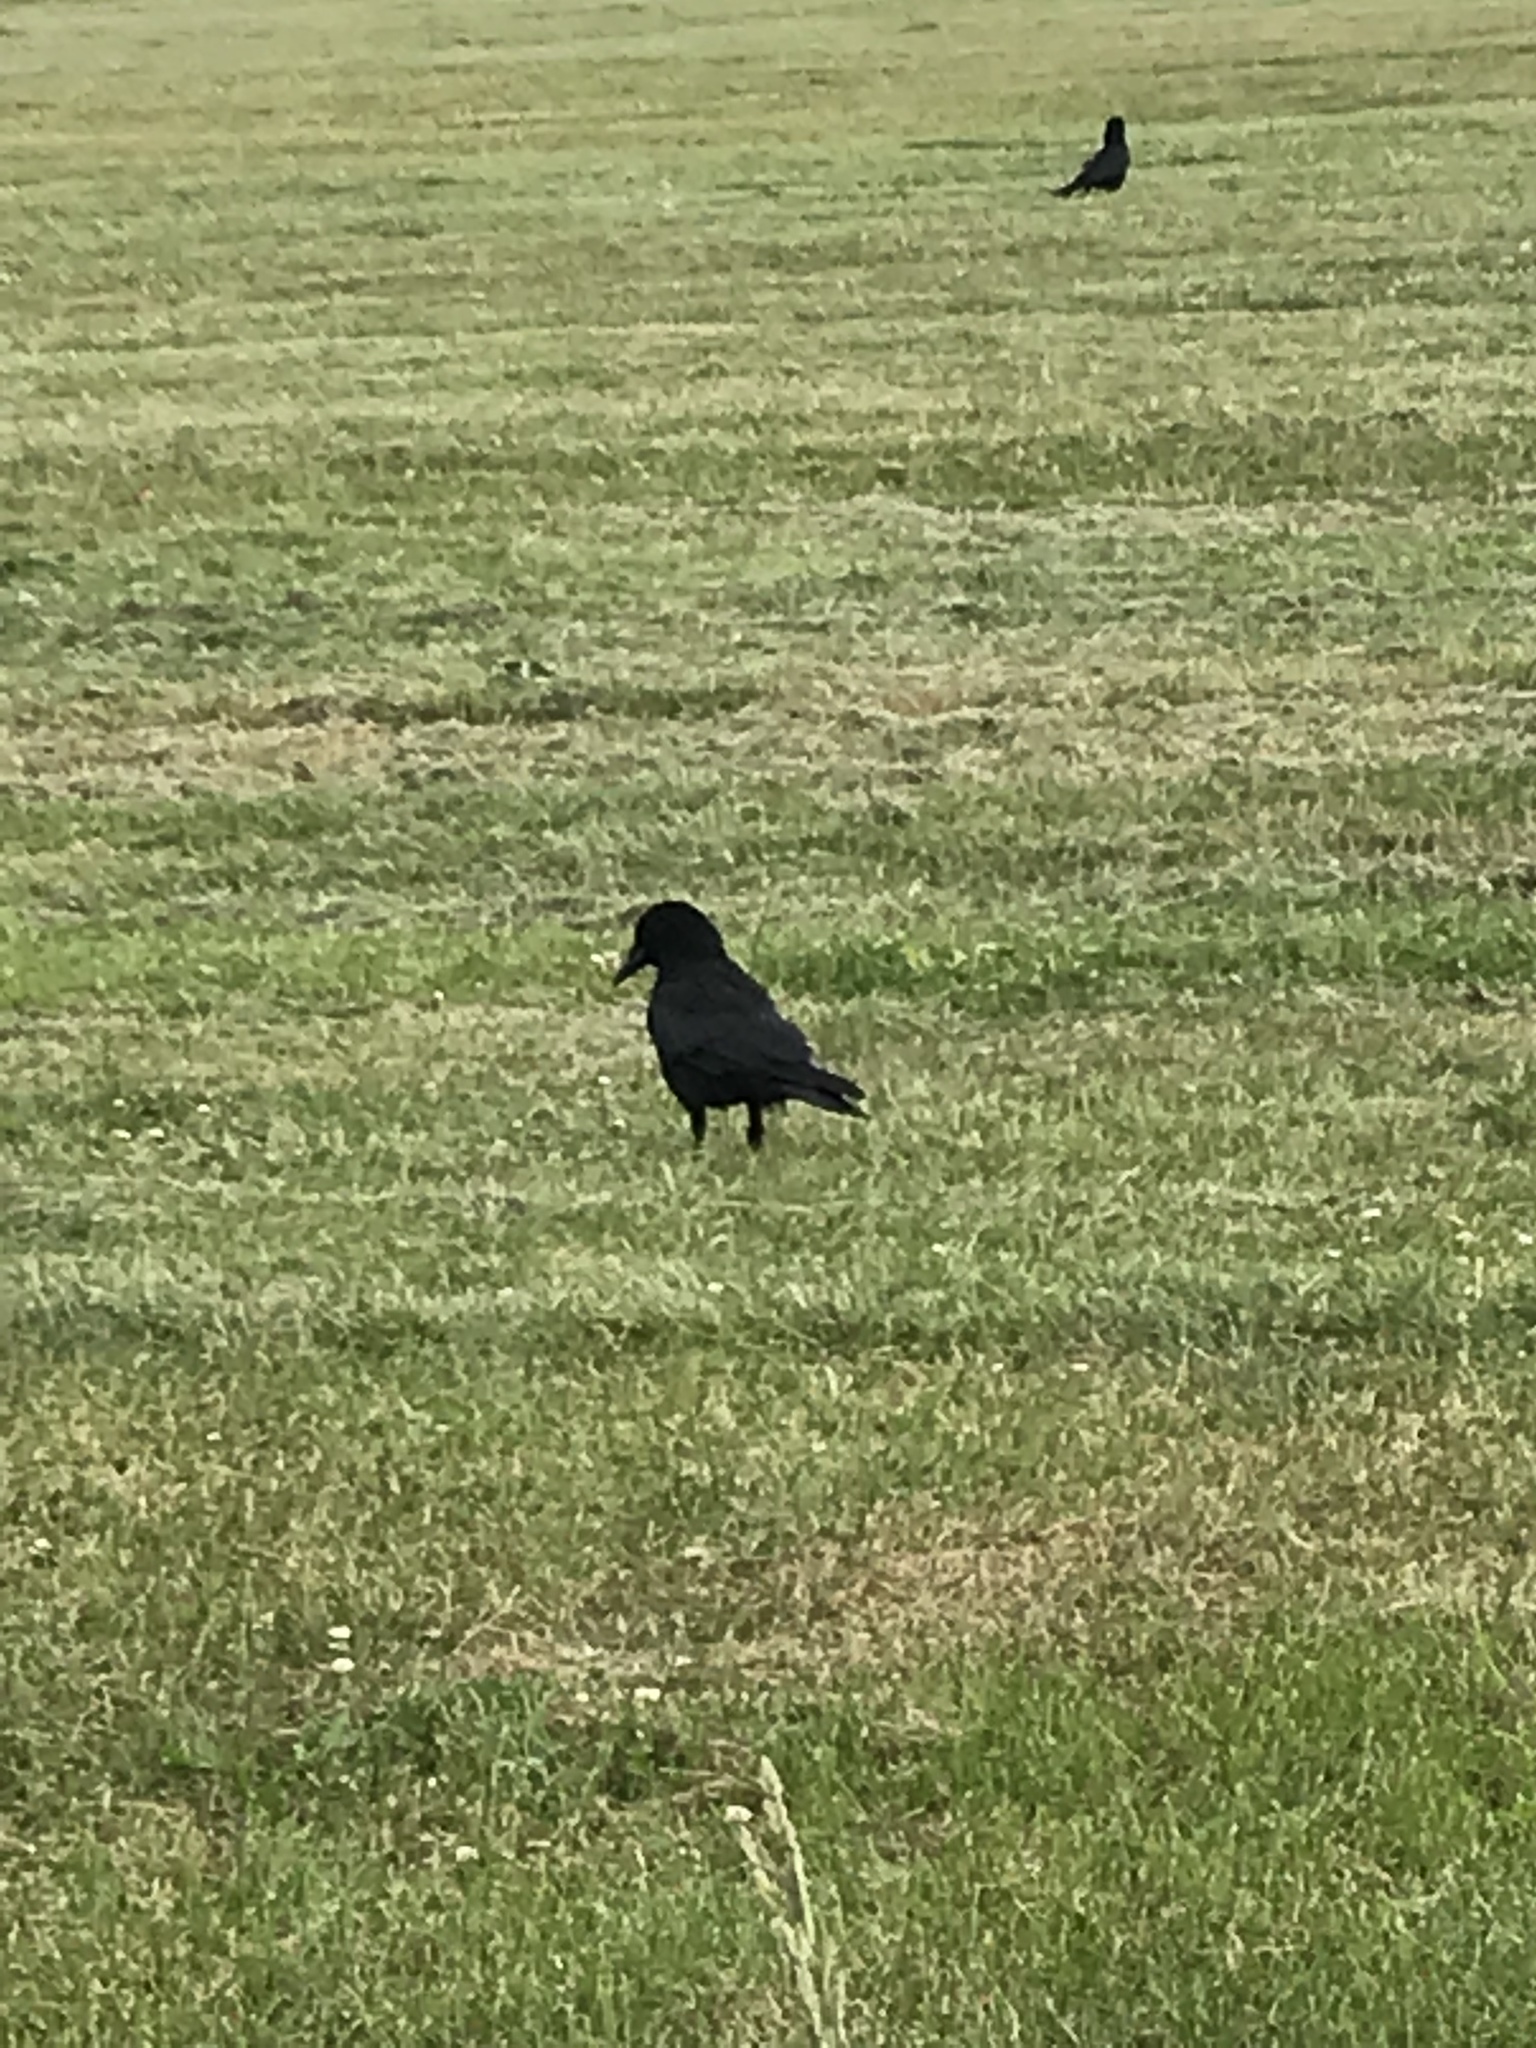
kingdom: Animalia
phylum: Chordata
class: Aves
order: Passeriformes
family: Corvidae
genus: Corvus
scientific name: Corvus corone
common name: Carrion crow
